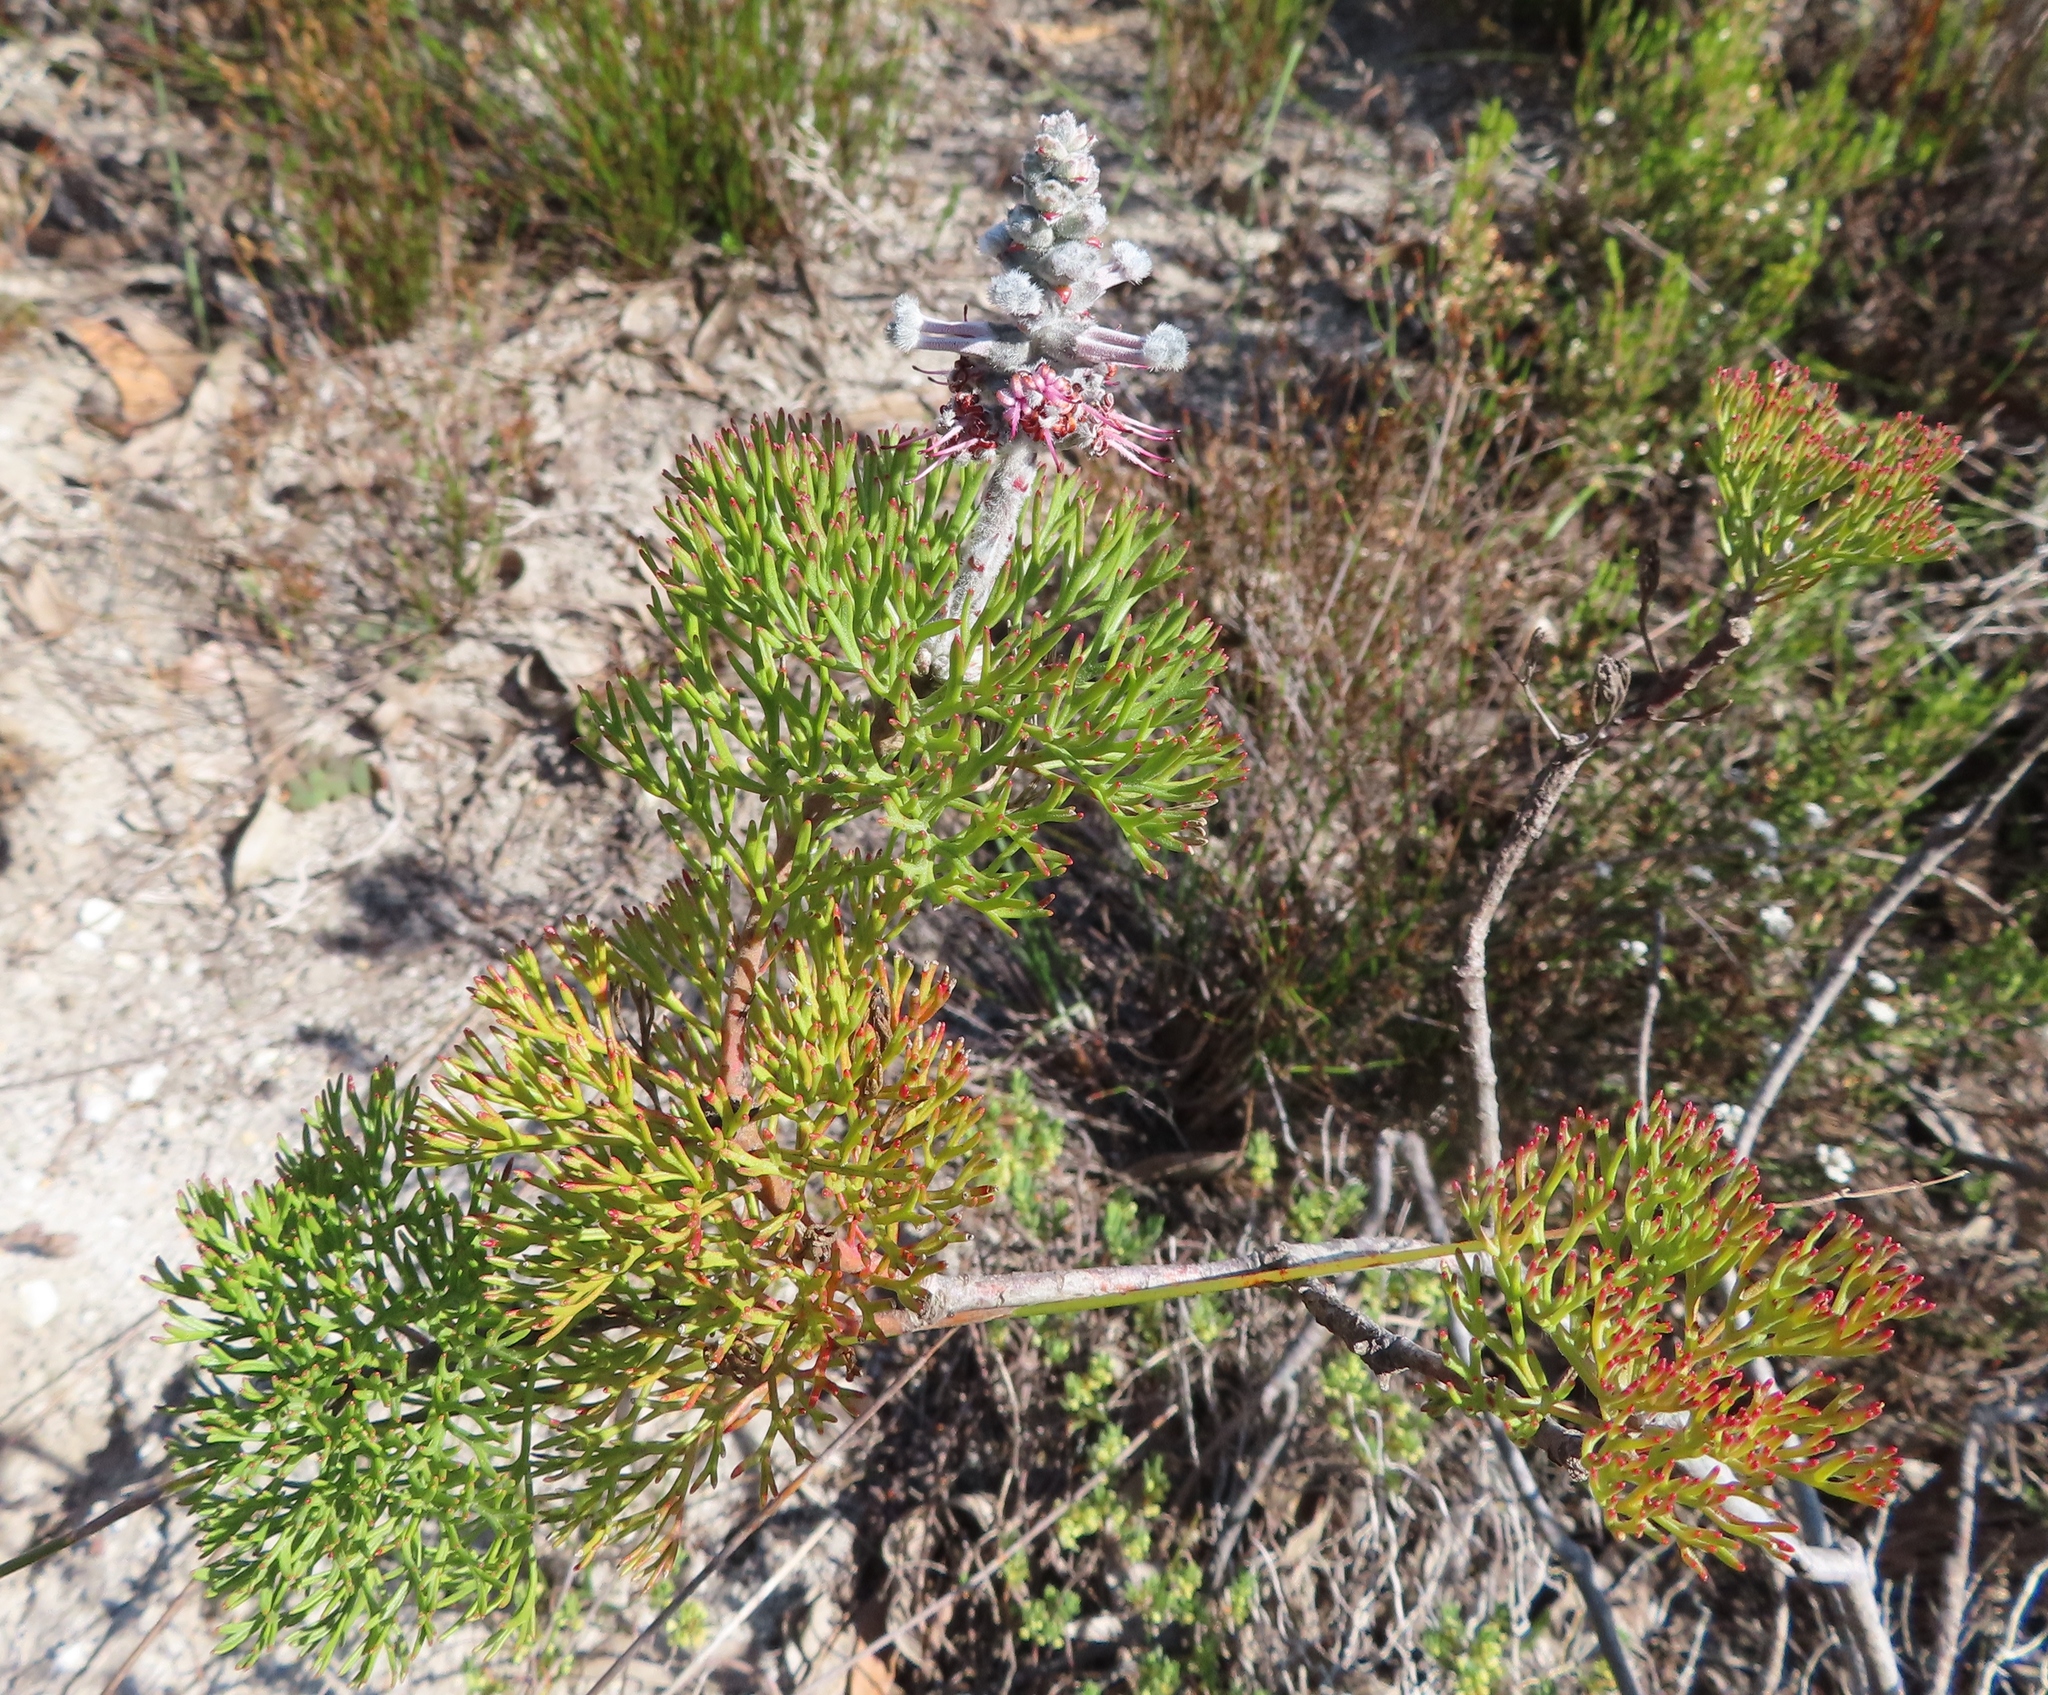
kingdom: Plantae
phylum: Tracheophyta
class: Magnoliopsida
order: Proteales
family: Proteaceae
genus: Paranomus
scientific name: Paranomus bolusii
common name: Overberg sceptre
